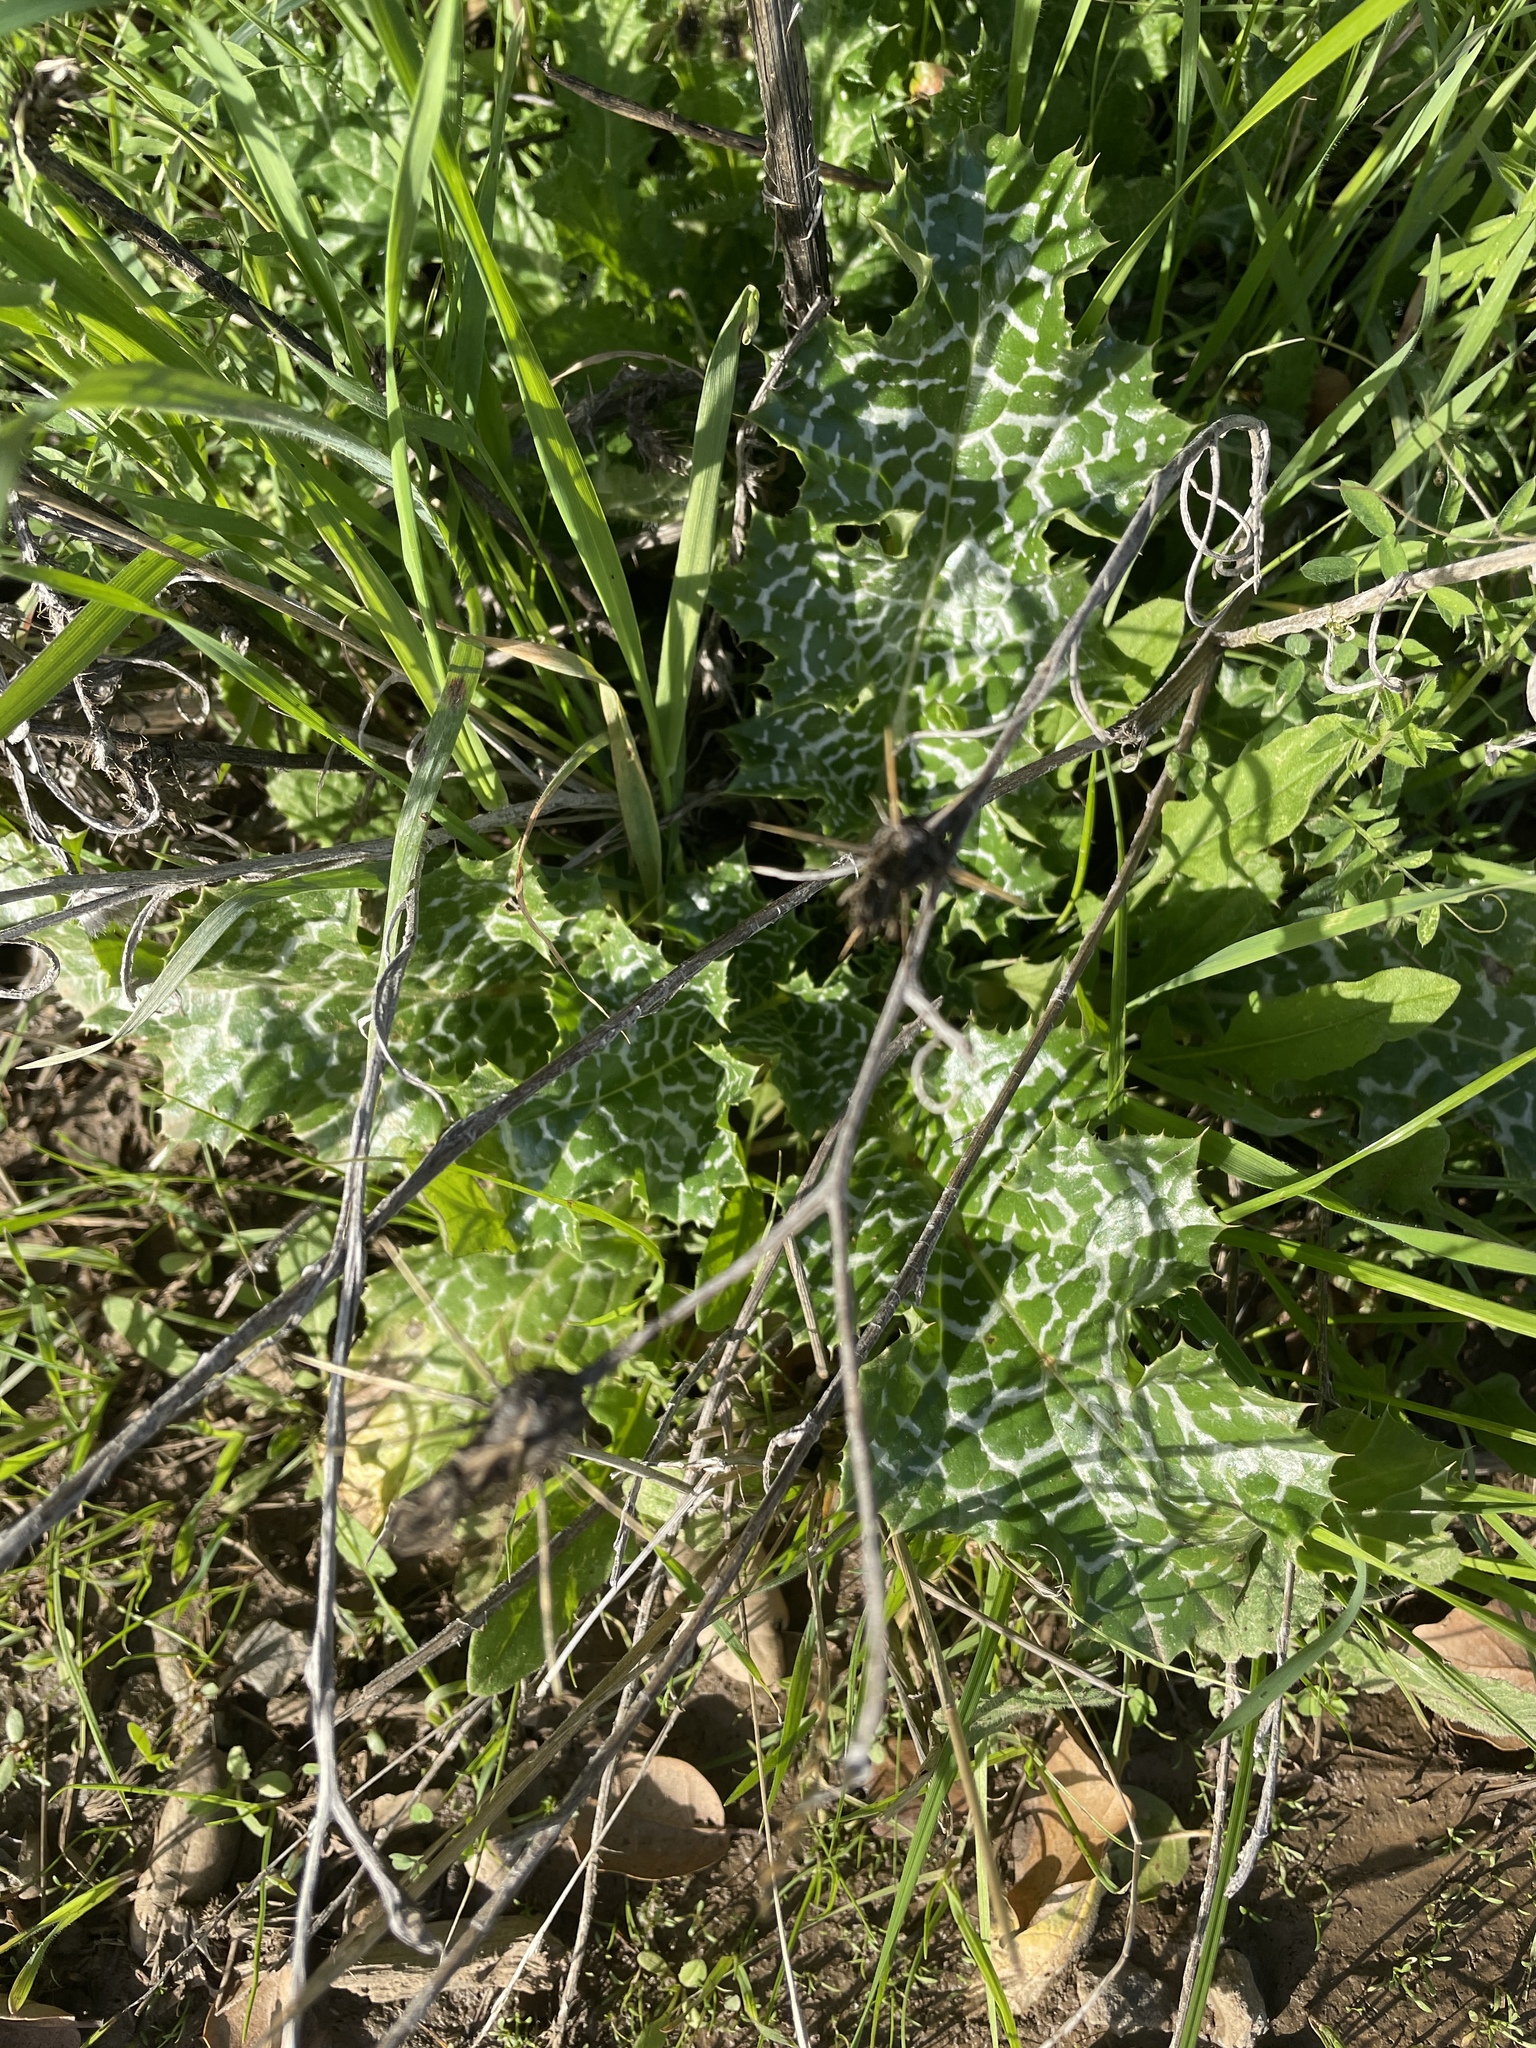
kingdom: Plantae
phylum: Tracheophyta
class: Magnoliopsida
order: Asterales
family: Asteraceae
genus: Silybum
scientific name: Silybum marianum
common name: Milk thistle
